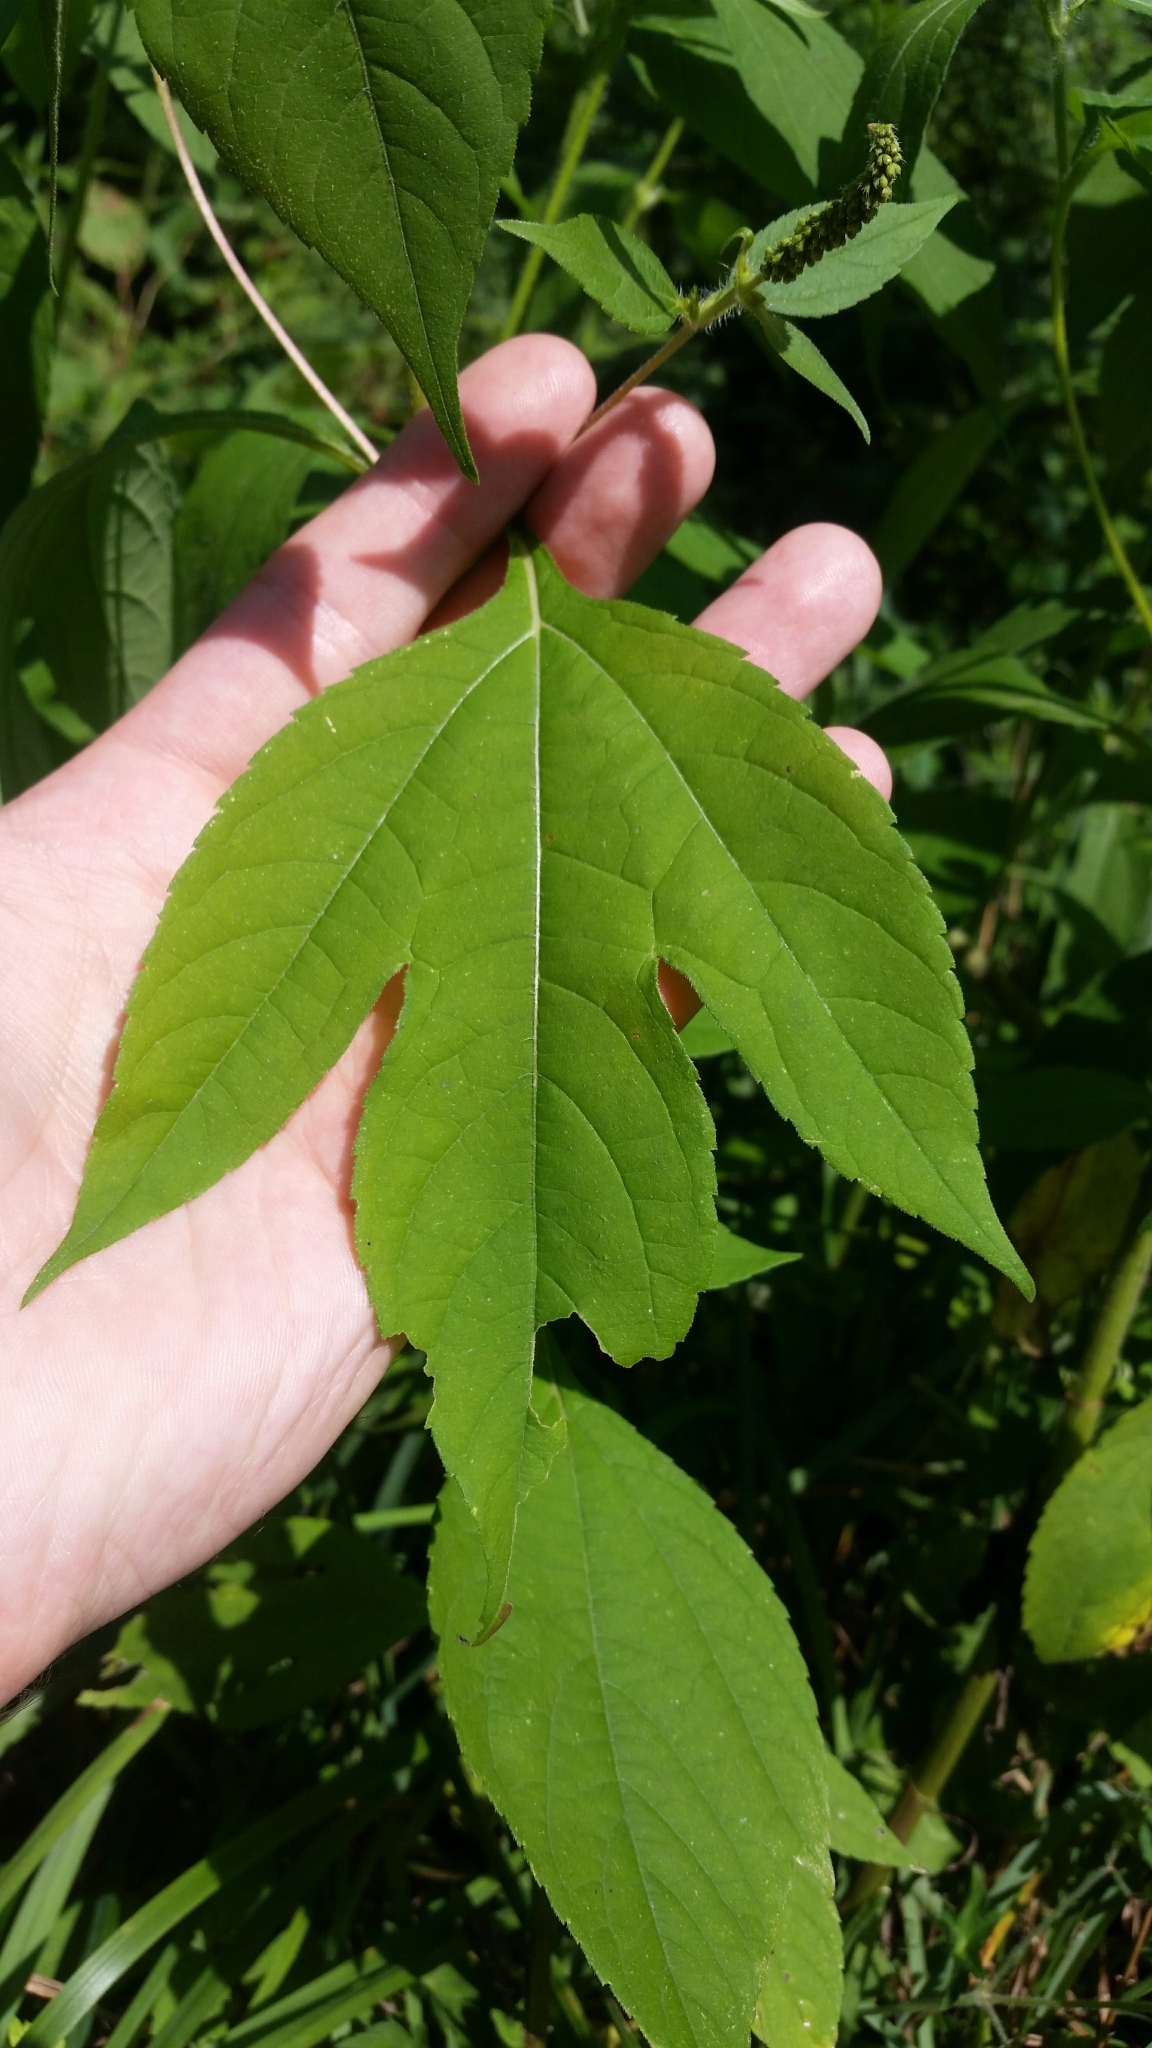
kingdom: Plantae
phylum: Tracheophyta
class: Magnoliopsida
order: Asterales
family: Asteraceae
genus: Ambrosia
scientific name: Ambrosia trifida
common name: Giant ragweed
